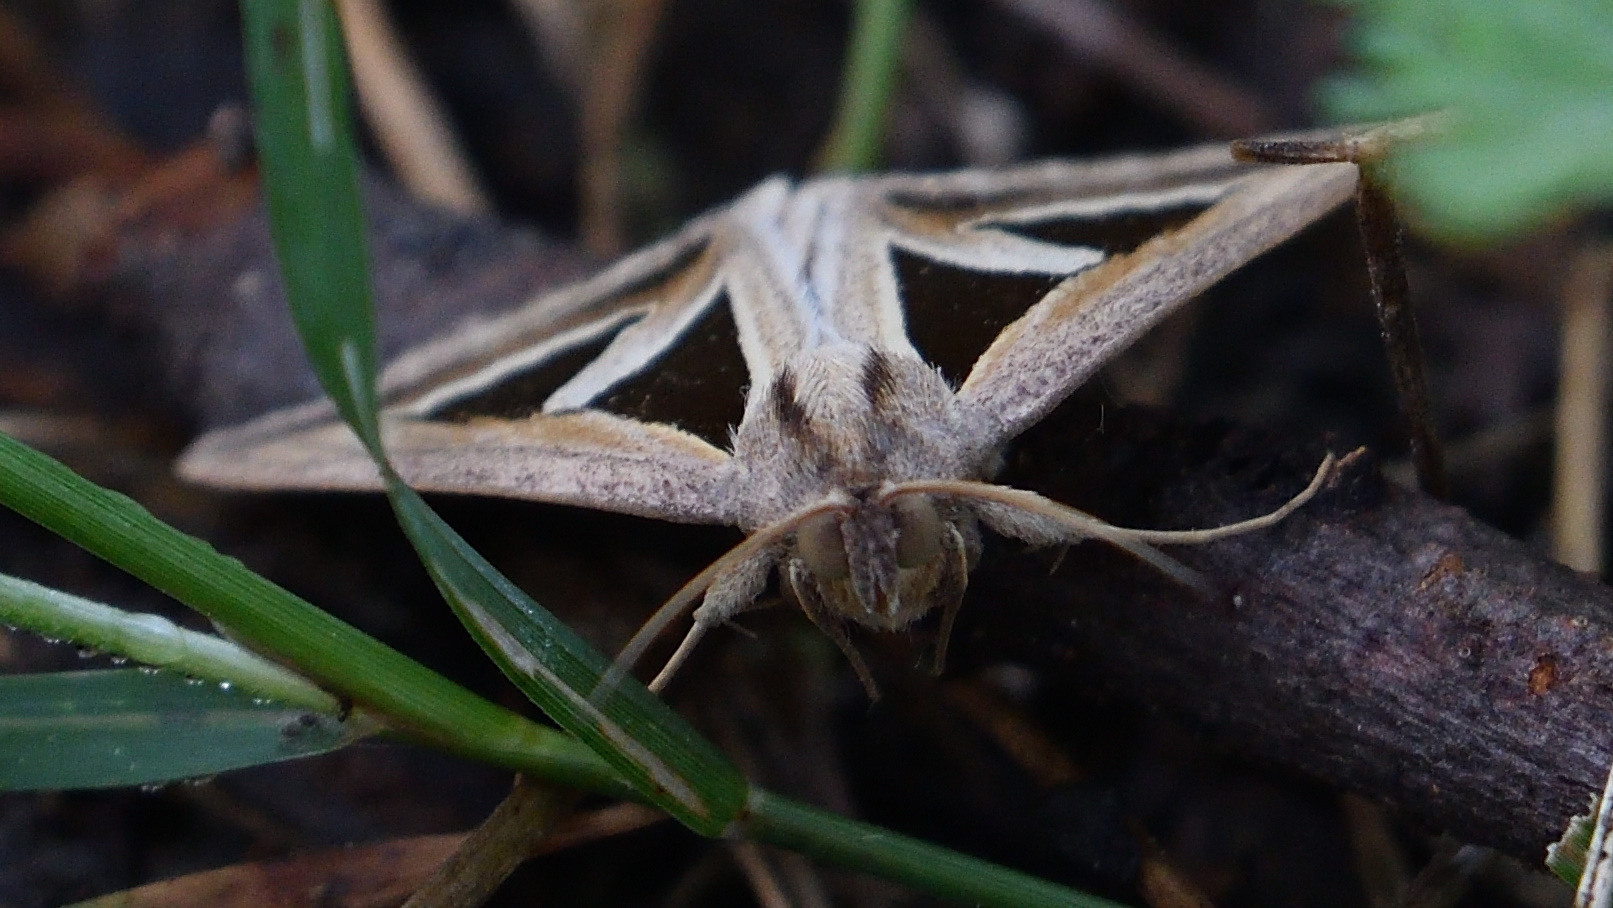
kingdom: Animalia
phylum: Arthropoda
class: Insecta
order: Lepidoptera
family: Erebidae
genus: Trigonodes
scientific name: Trigonodes hyppasia
